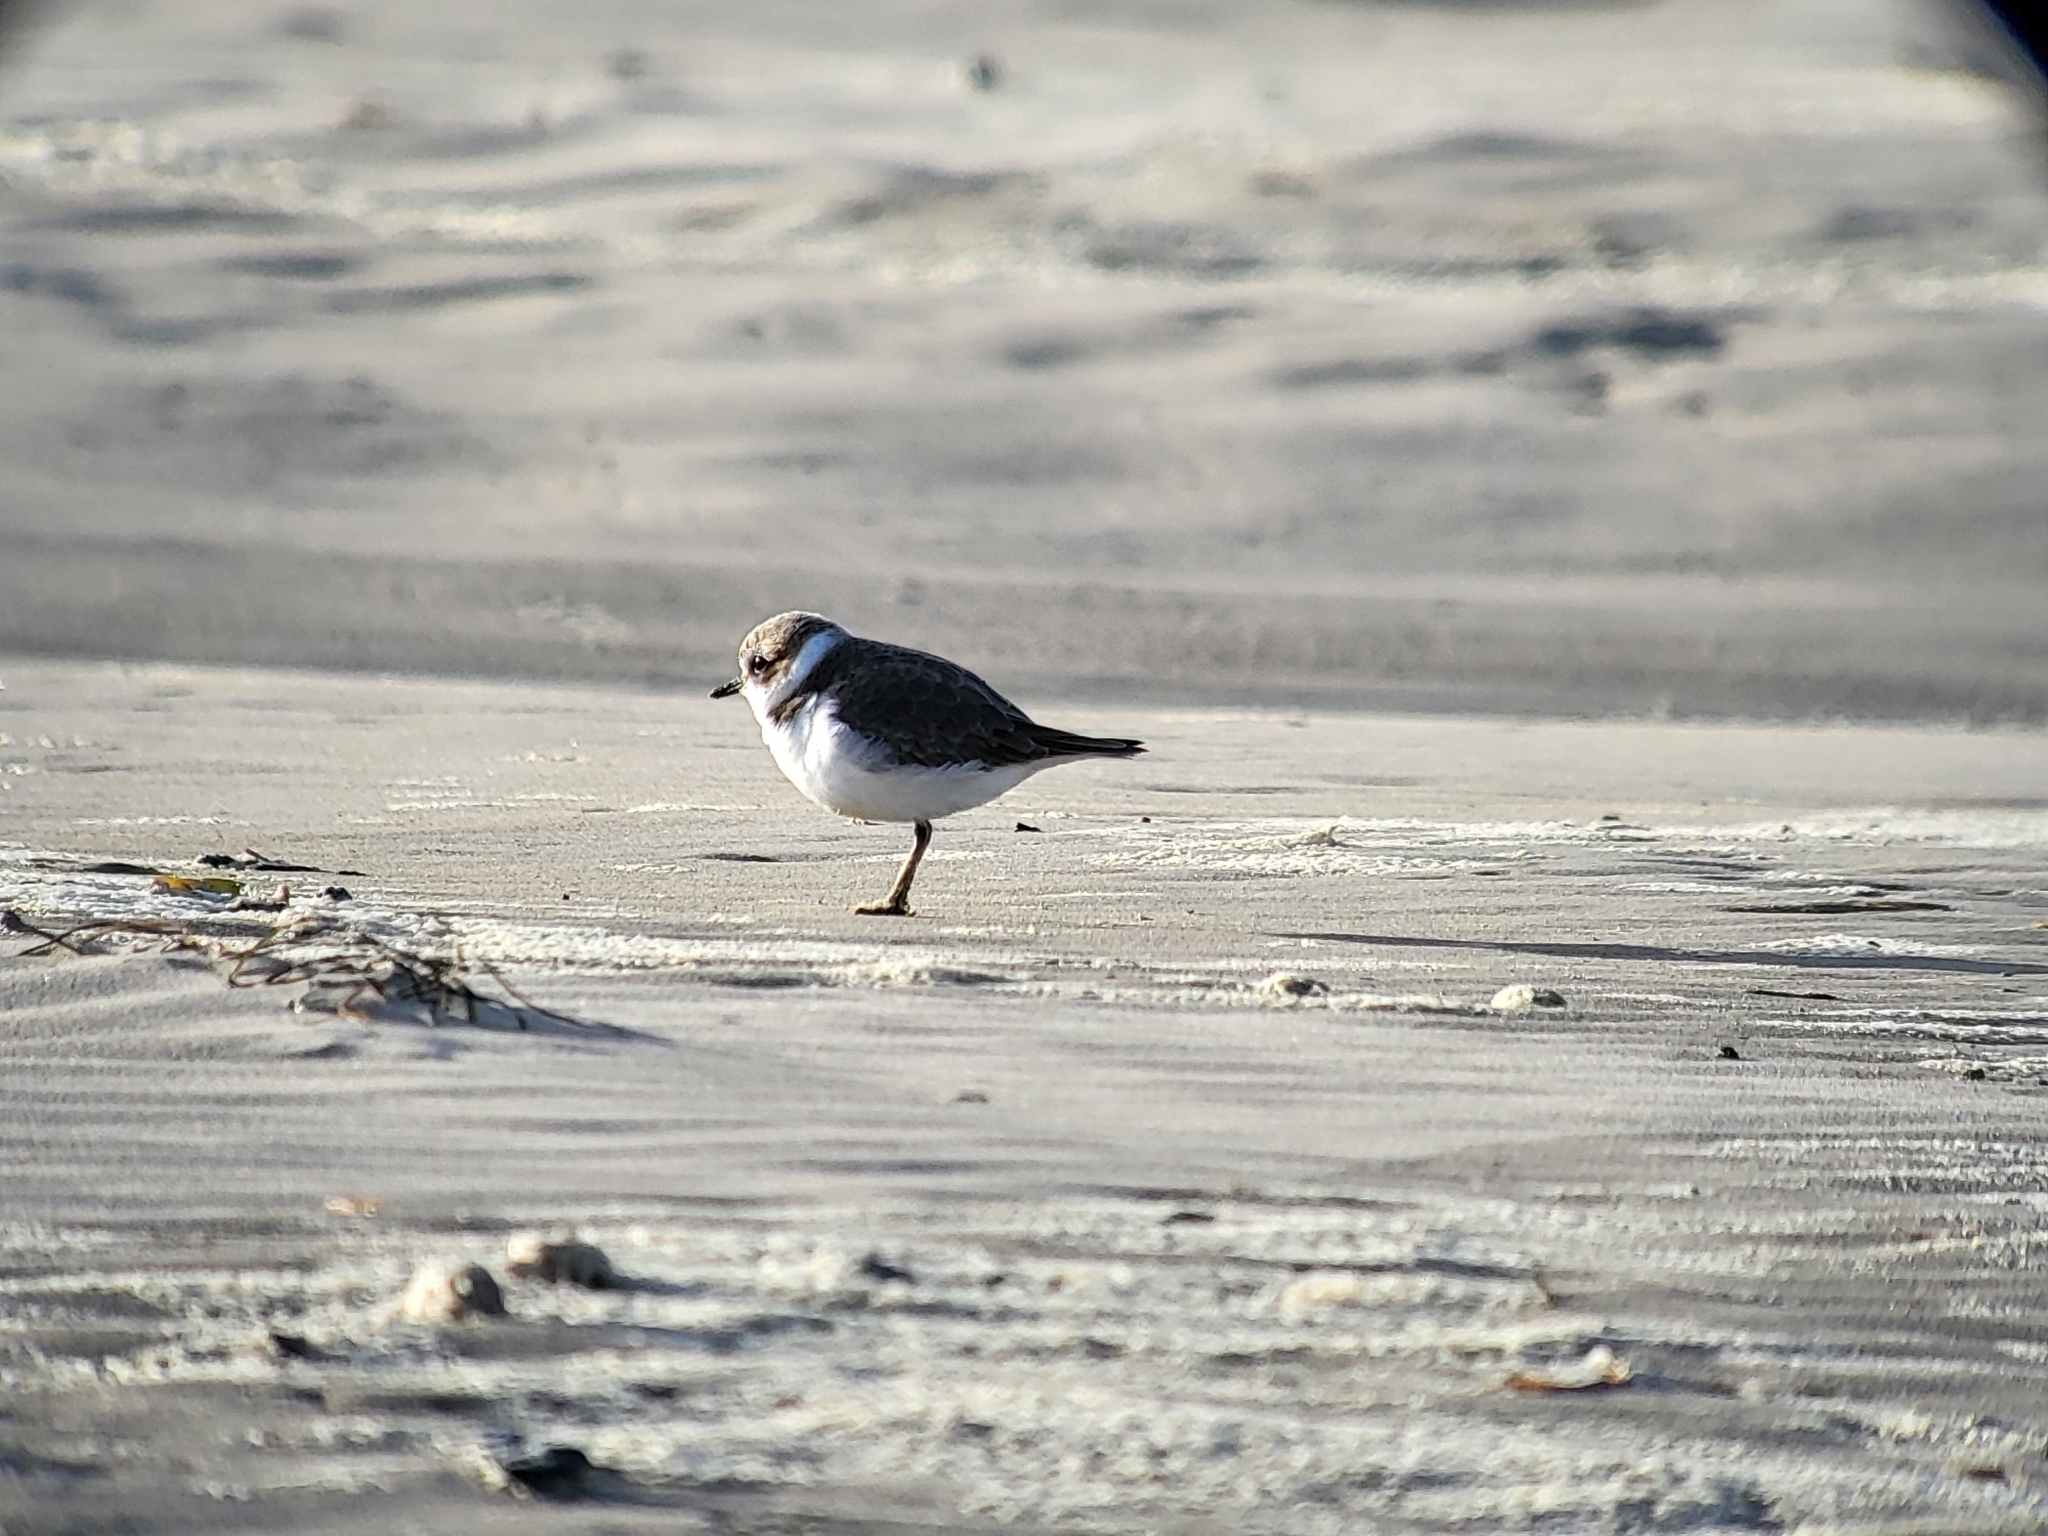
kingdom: Animalia
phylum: Chordata
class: Aves
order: Charadriiformes
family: Charadriidae
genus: Anarhynchus
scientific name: Anarhynchus
